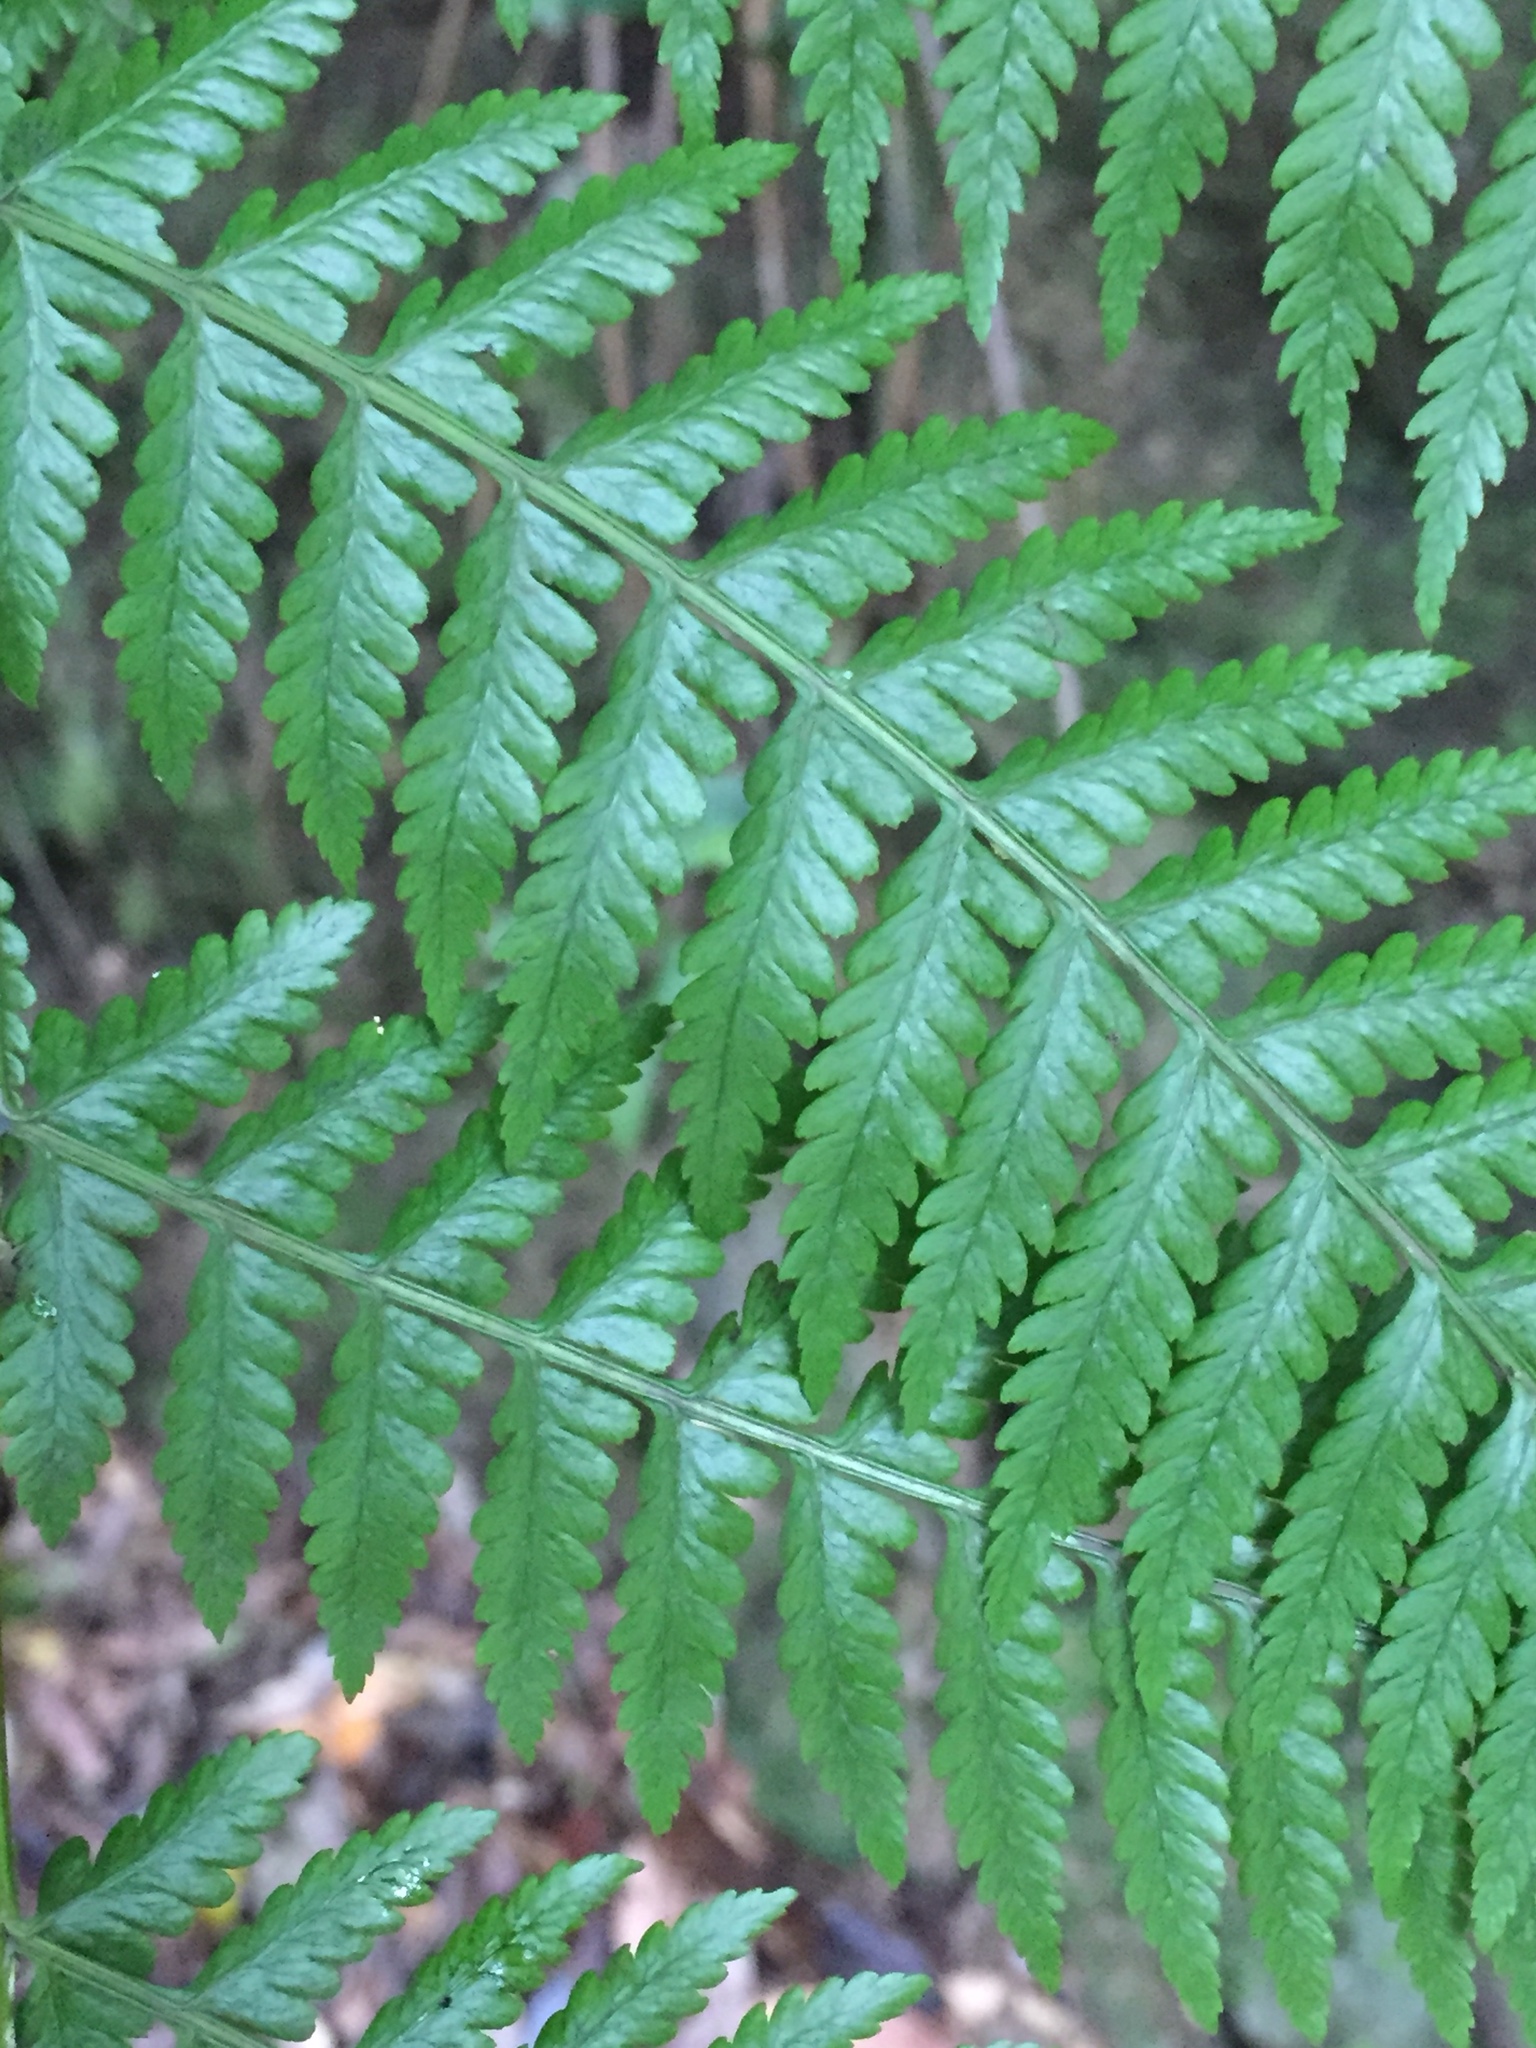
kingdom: Plantae
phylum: Tracheophyta
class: Polypodiopsida
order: Polypodiales
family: Athyriaceae
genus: Diplazium
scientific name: Diplazium caudatum
